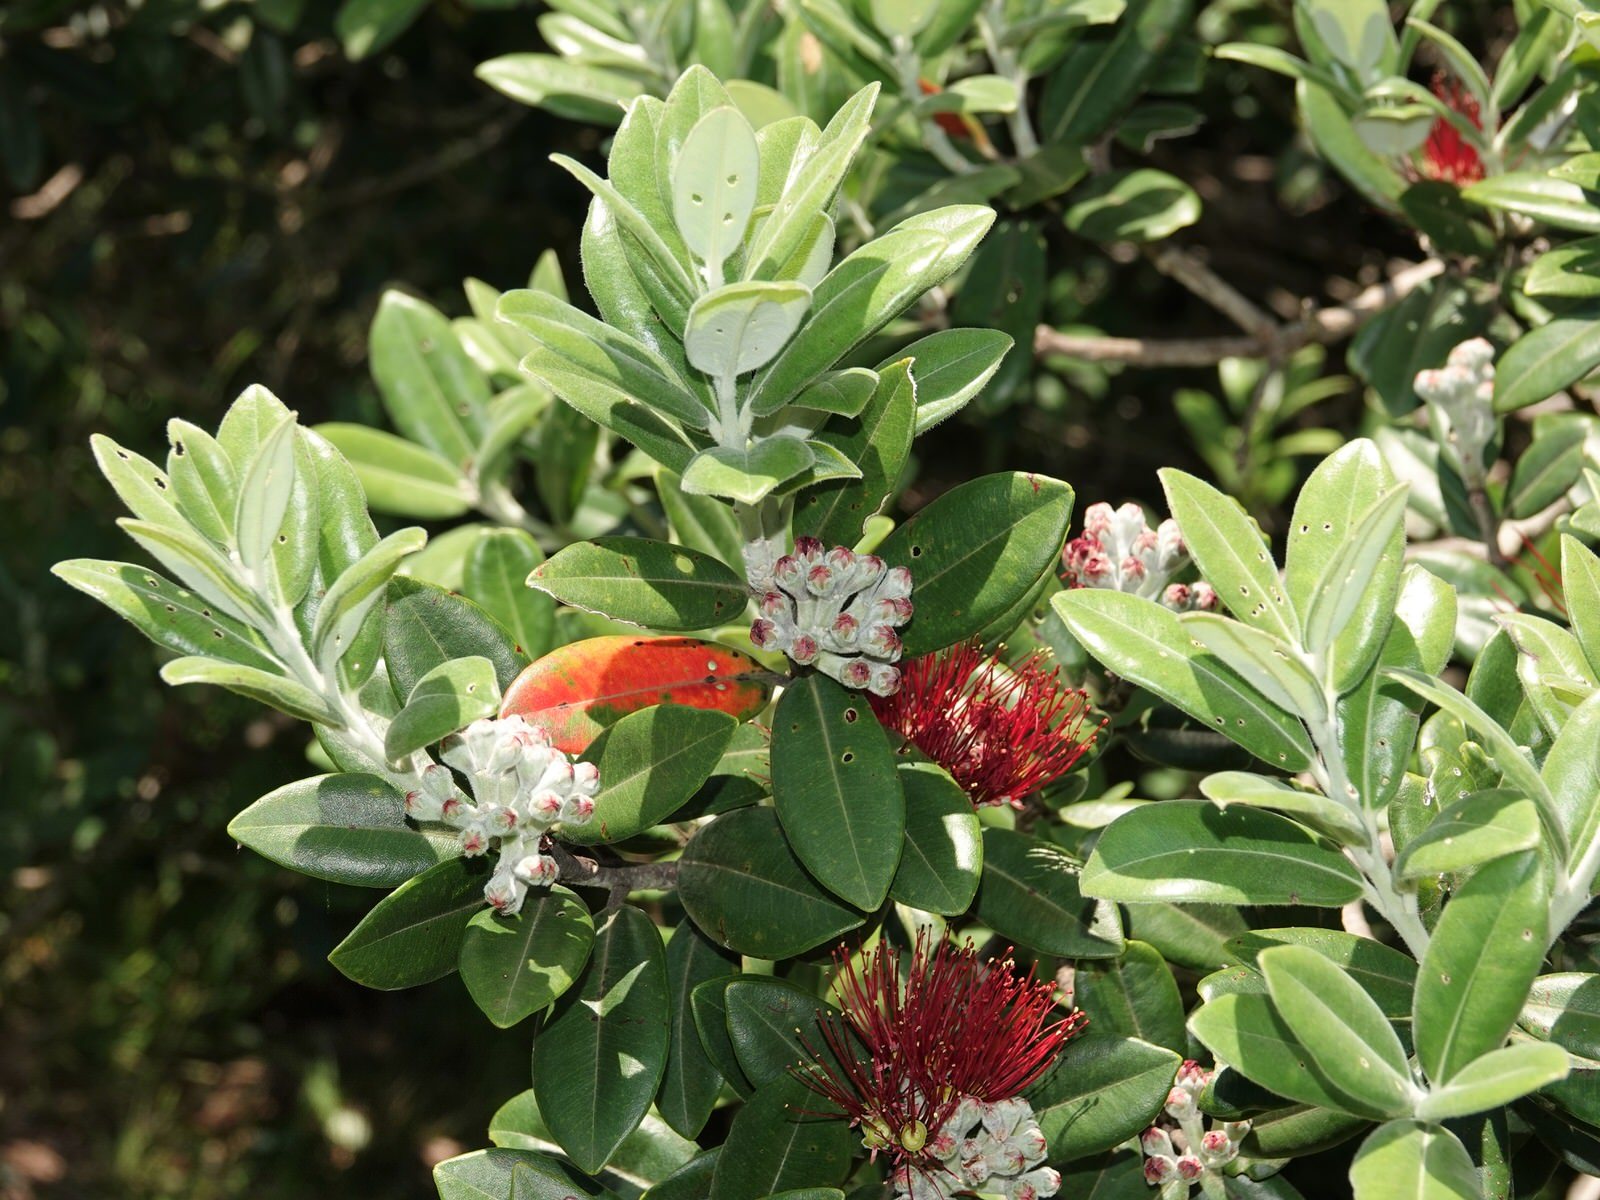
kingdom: Plantae
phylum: Tracheophyta
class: Magnoliopsida
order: Myrtales
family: Myrtaceae
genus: Metrosideros
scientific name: Metrosideros excelsa
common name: New zealand christmastree
